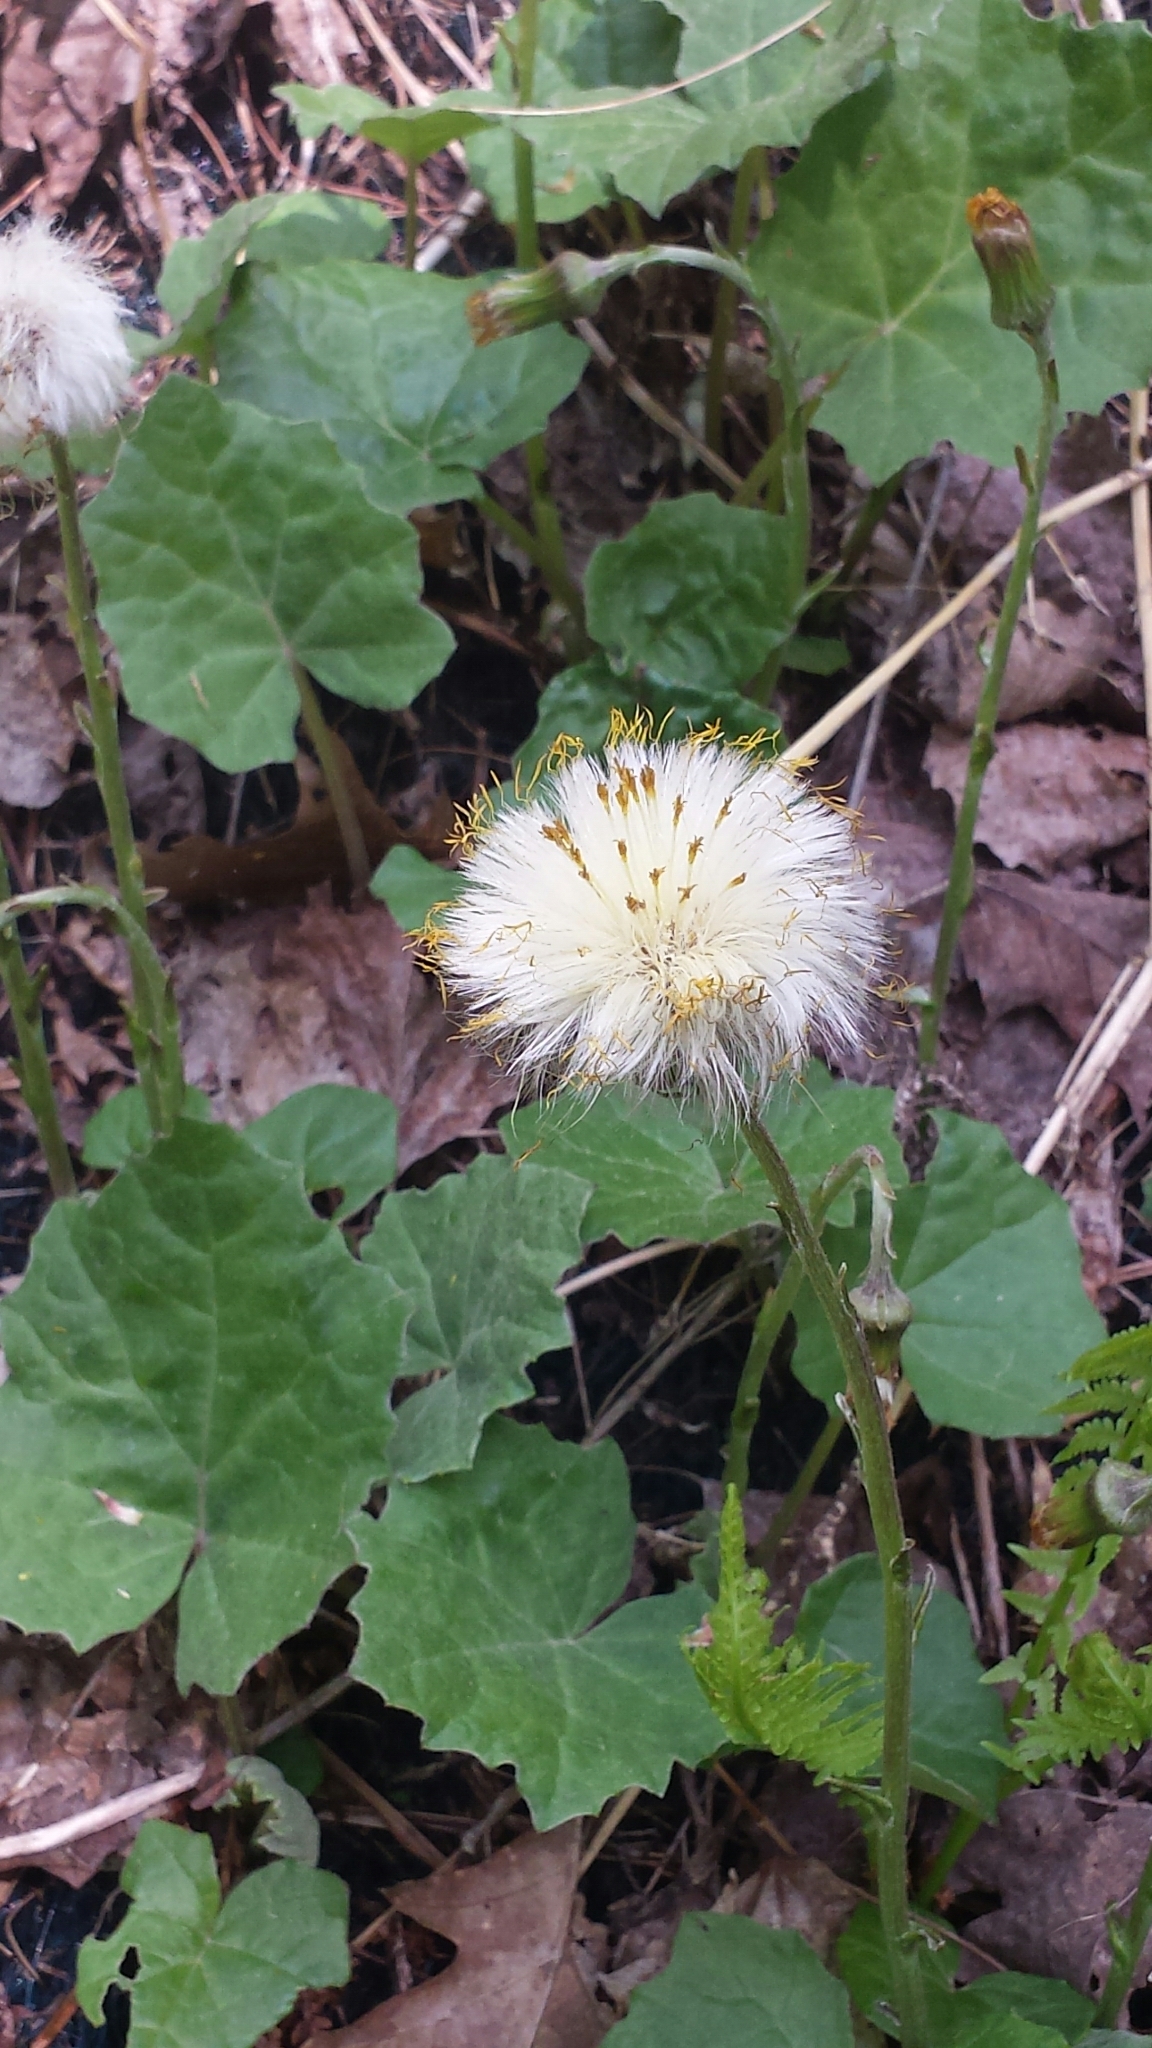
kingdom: Plantae
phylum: Tracheophyta
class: Magnoliopsida
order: Asterales
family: Asteraceae
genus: Tussilago
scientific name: Tussilago farfara
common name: Coltsfoot
